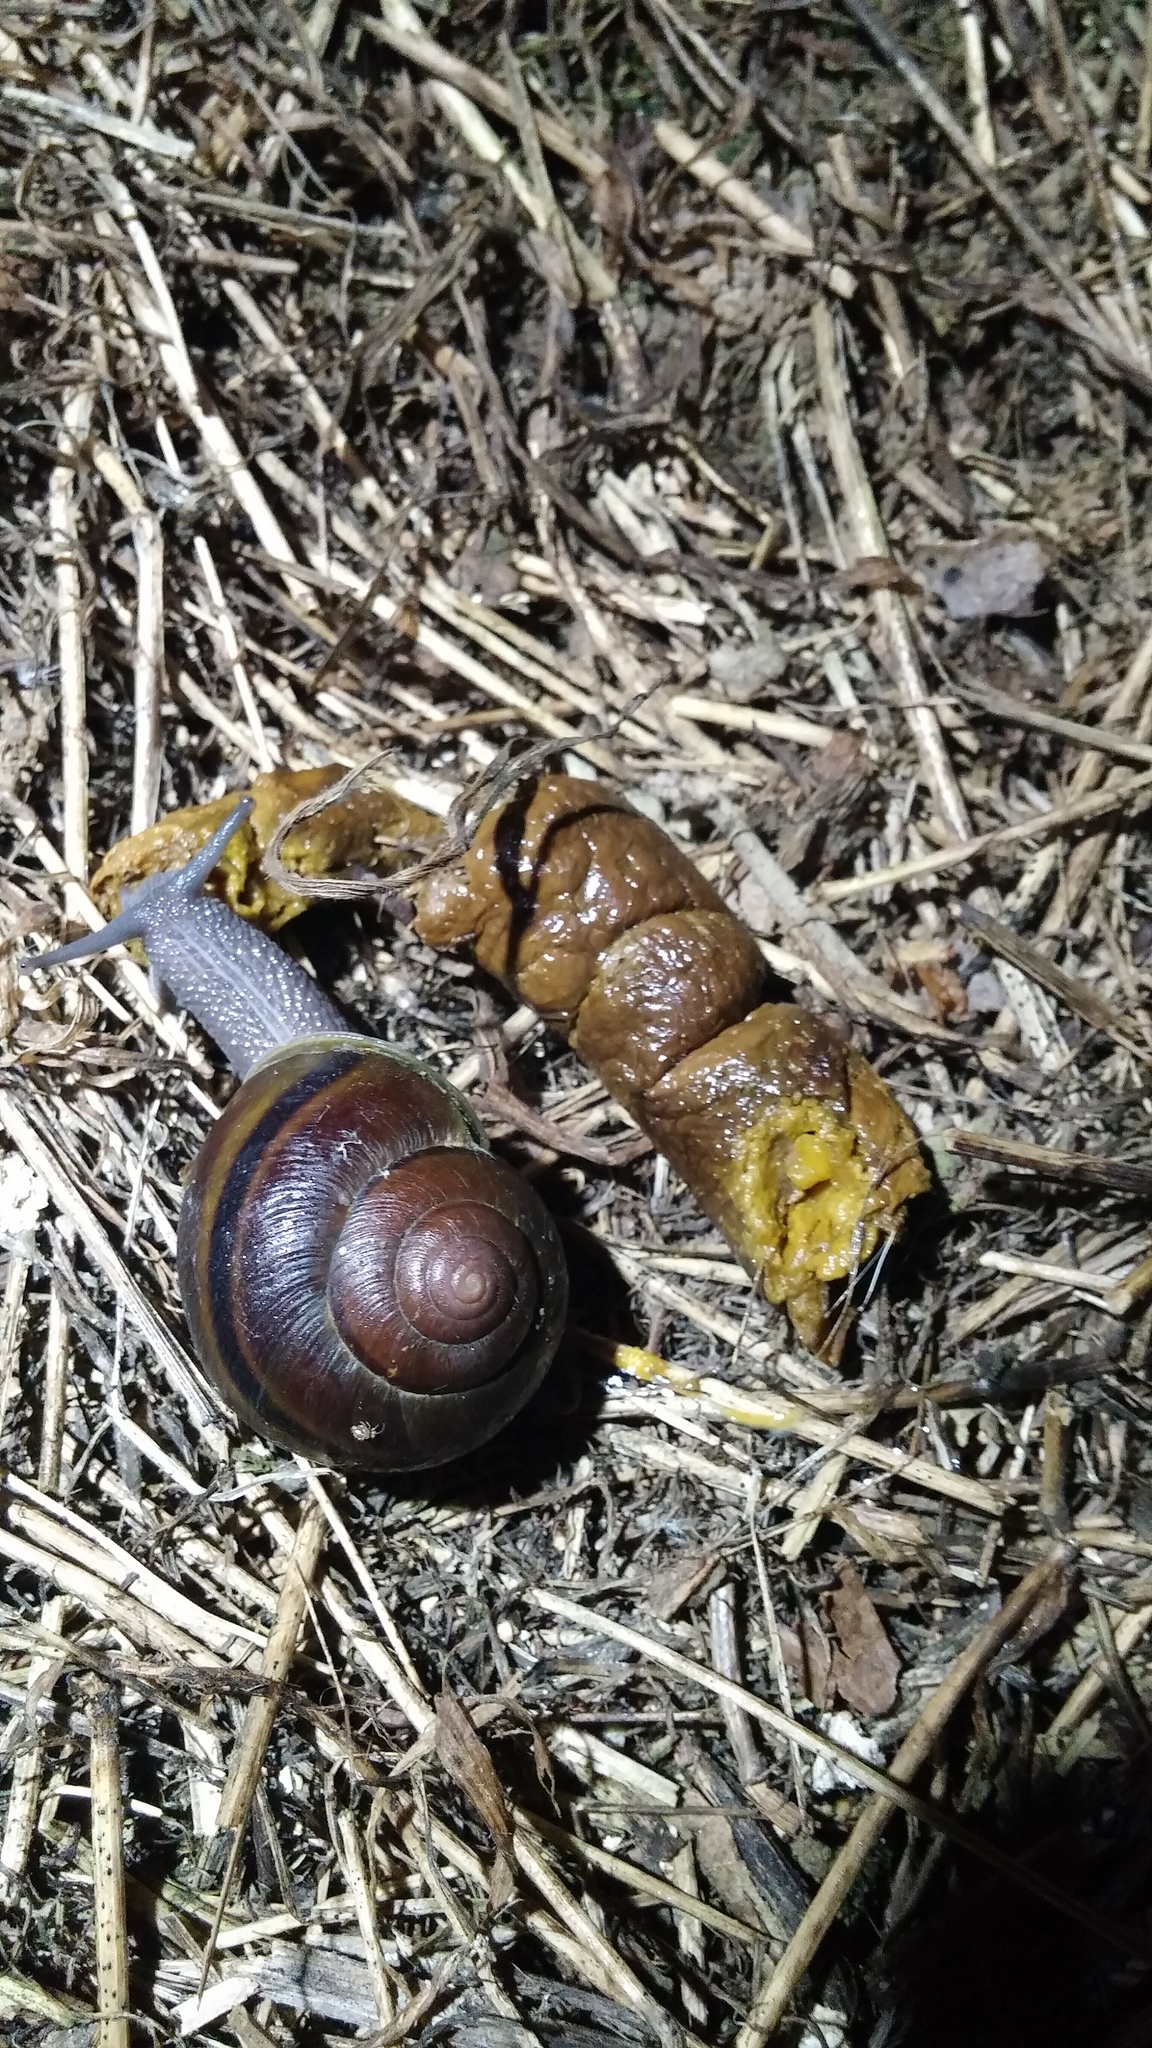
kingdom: Animalia
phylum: Mollusca
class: Gastropoda
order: Stylommatophora
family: Xanthonychidae
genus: Helminthoglypta
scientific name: Helminthoglypta tudiculata
